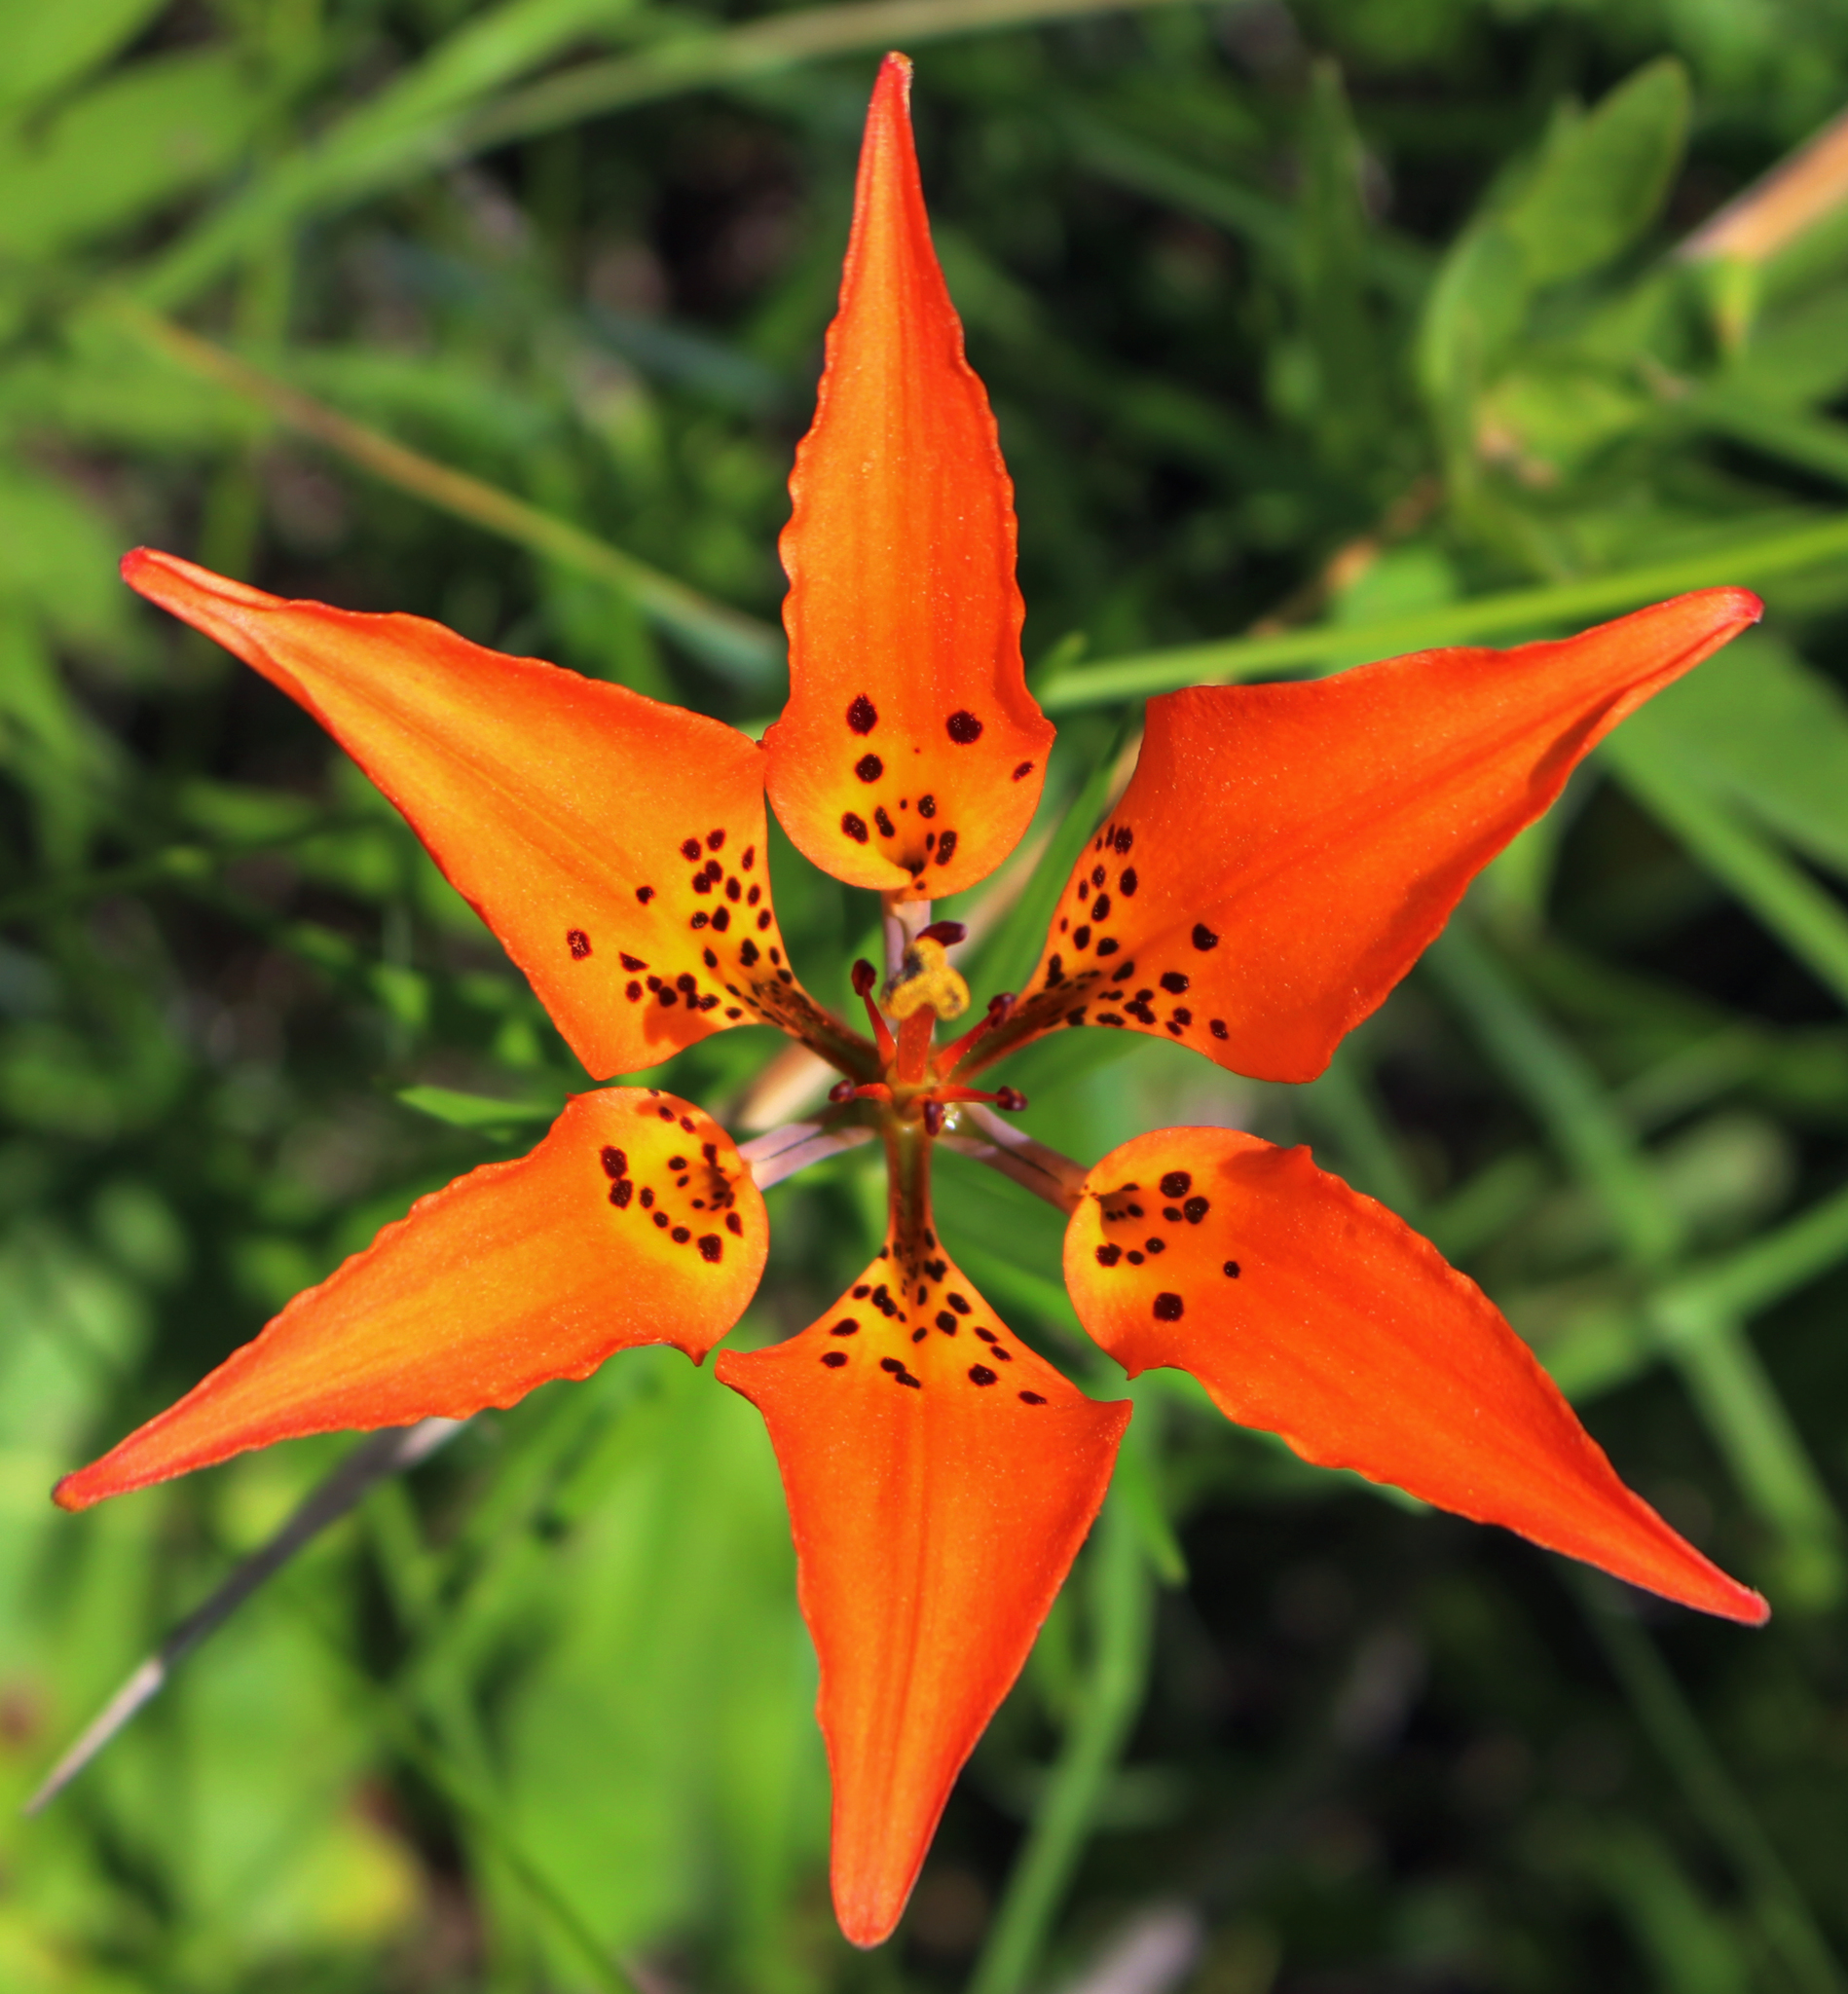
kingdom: Plantae
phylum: Tracheophyta
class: Liliopsida
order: Liliales
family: Liliaceae
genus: Lilium
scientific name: Lilium philadelphicum
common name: Red lily
